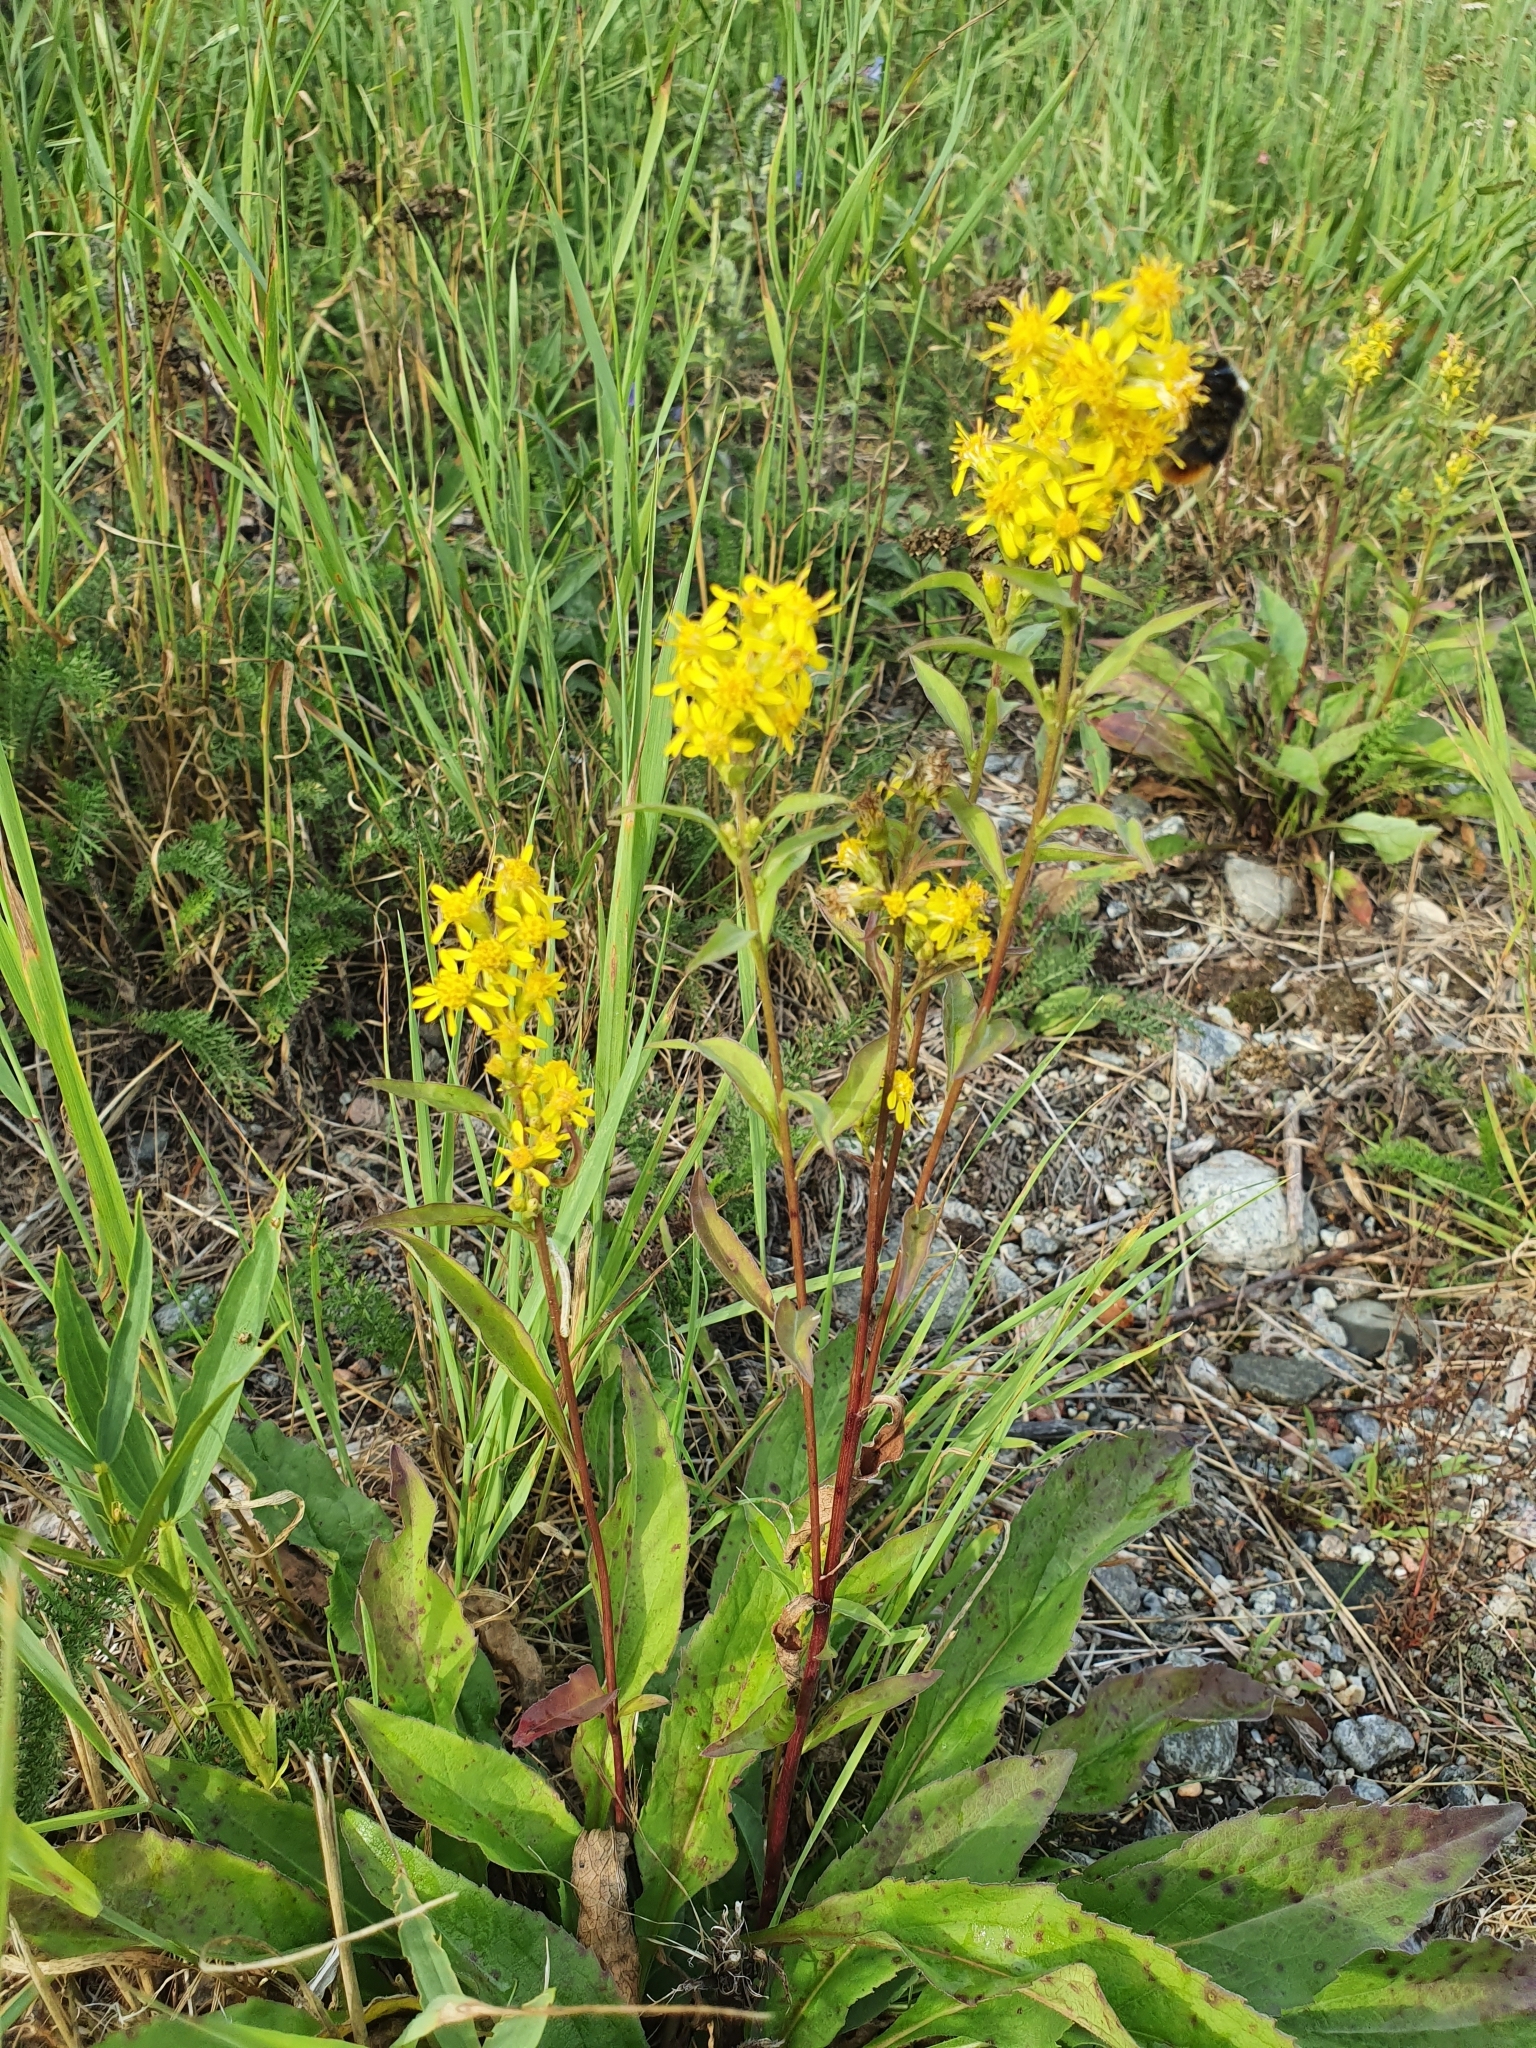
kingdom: Plantae
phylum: Tracheophyta
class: Magnoliopsida
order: Asterales
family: Asteraceae
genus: Solidago
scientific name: Solidago virgaurea
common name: Goldenrod
